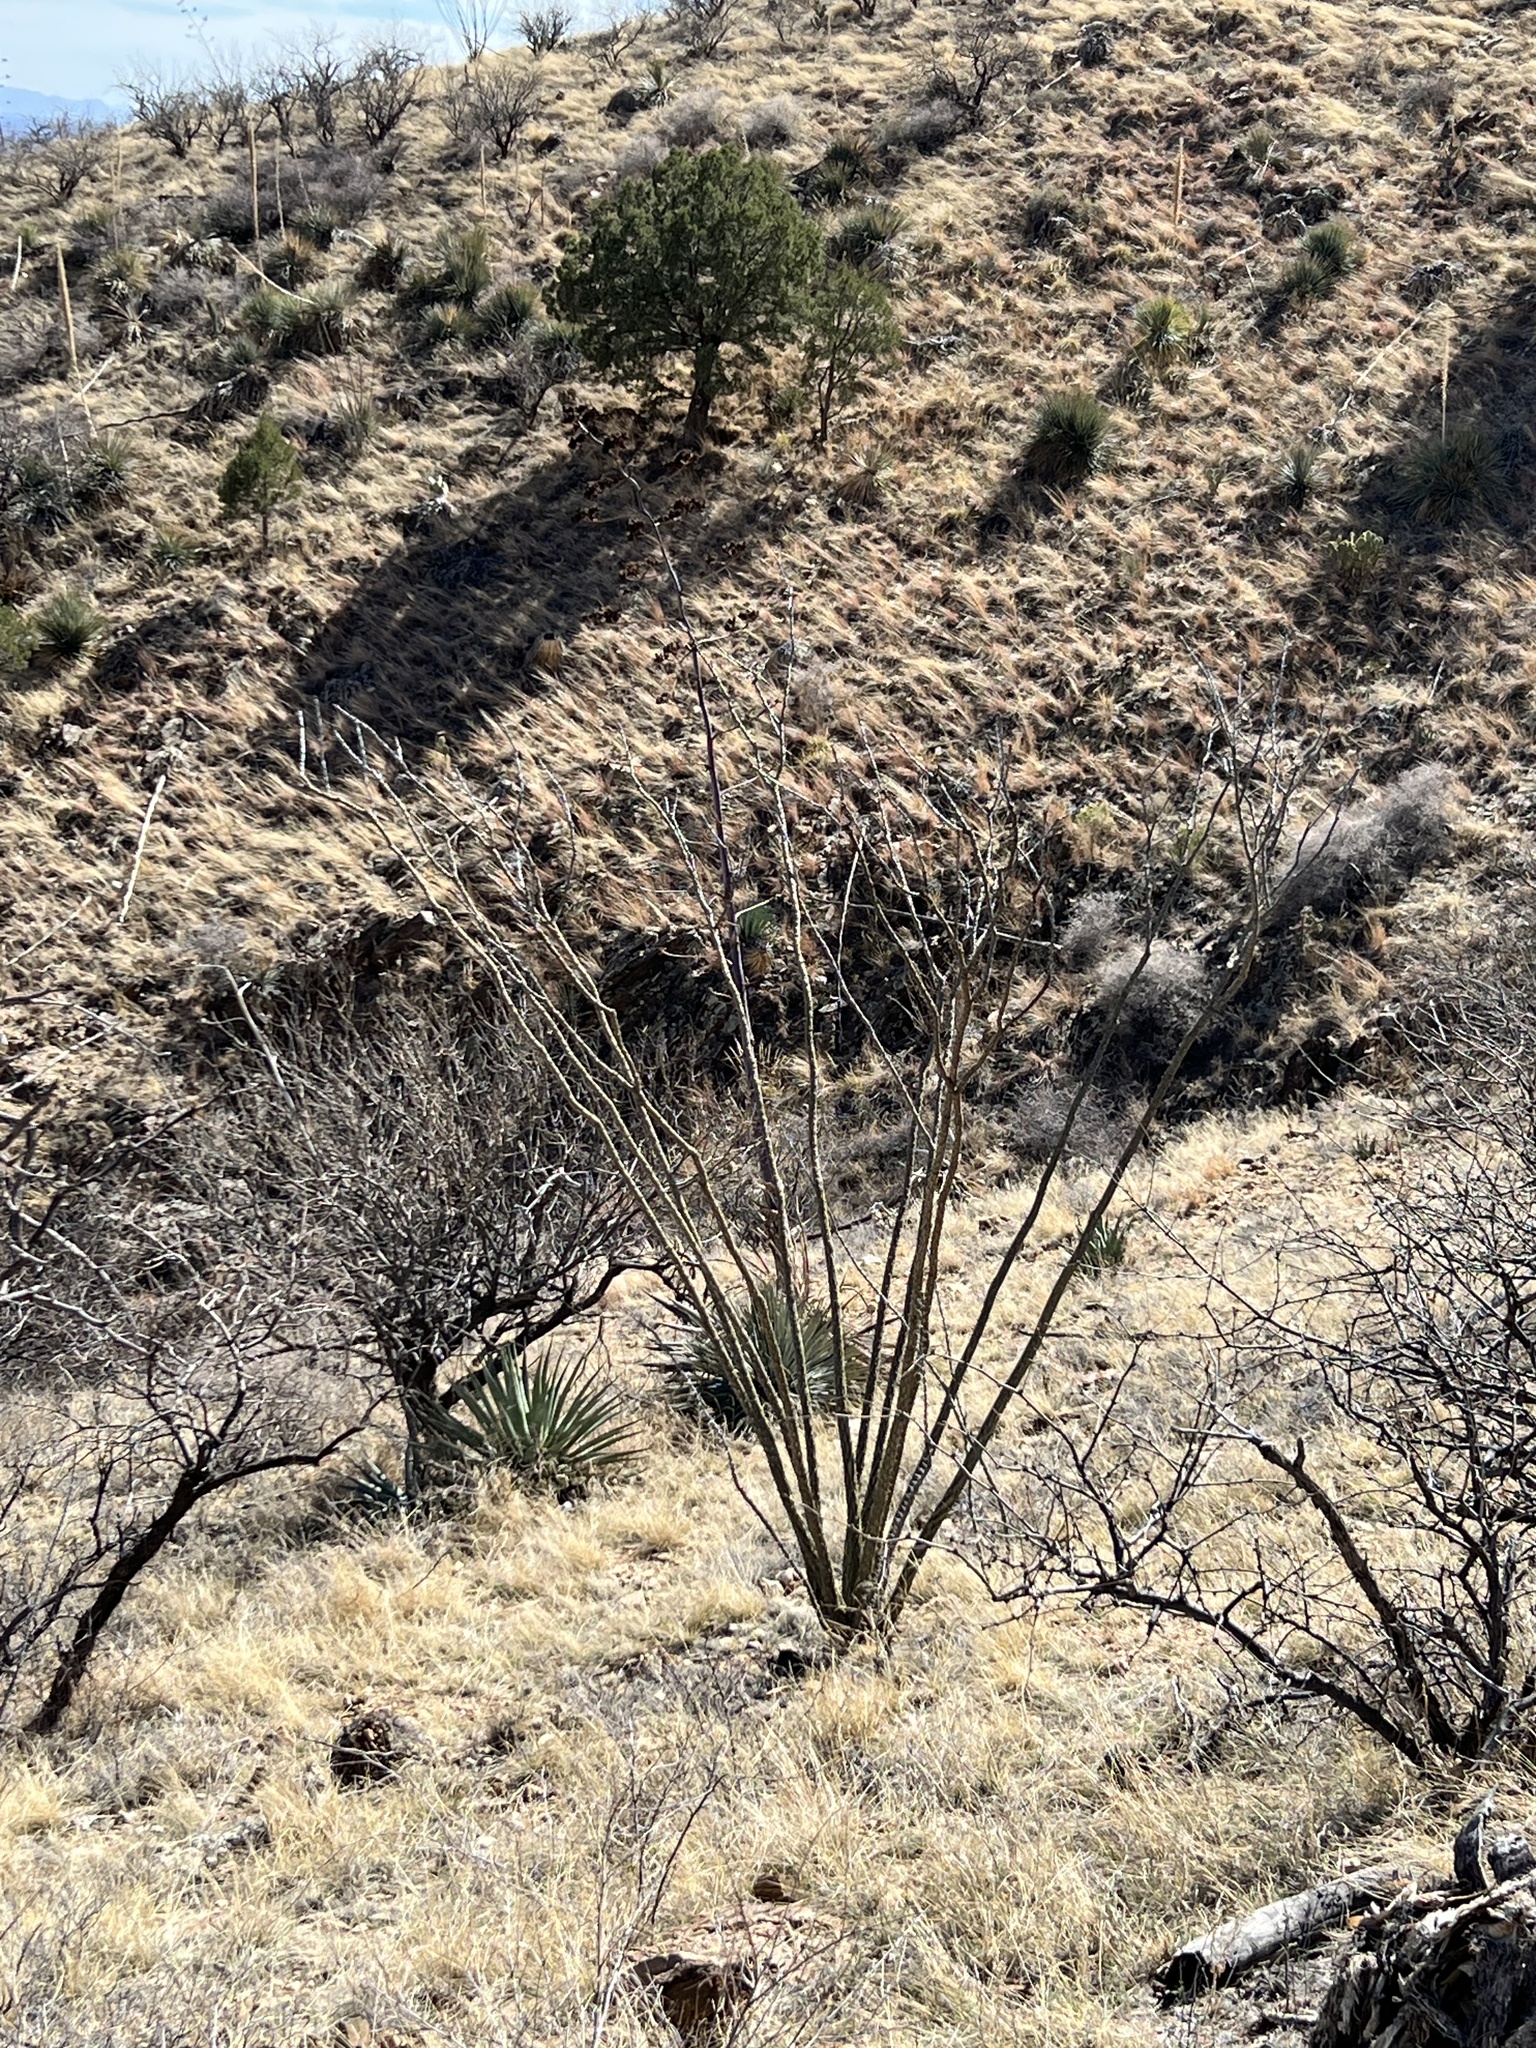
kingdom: Plantae
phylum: Tracheophyta
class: Magnoliopsida
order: Ericales
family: Fouquieriaceae
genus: Fouquieria
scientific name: Fouquieria splendens
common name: Vine-cactus
